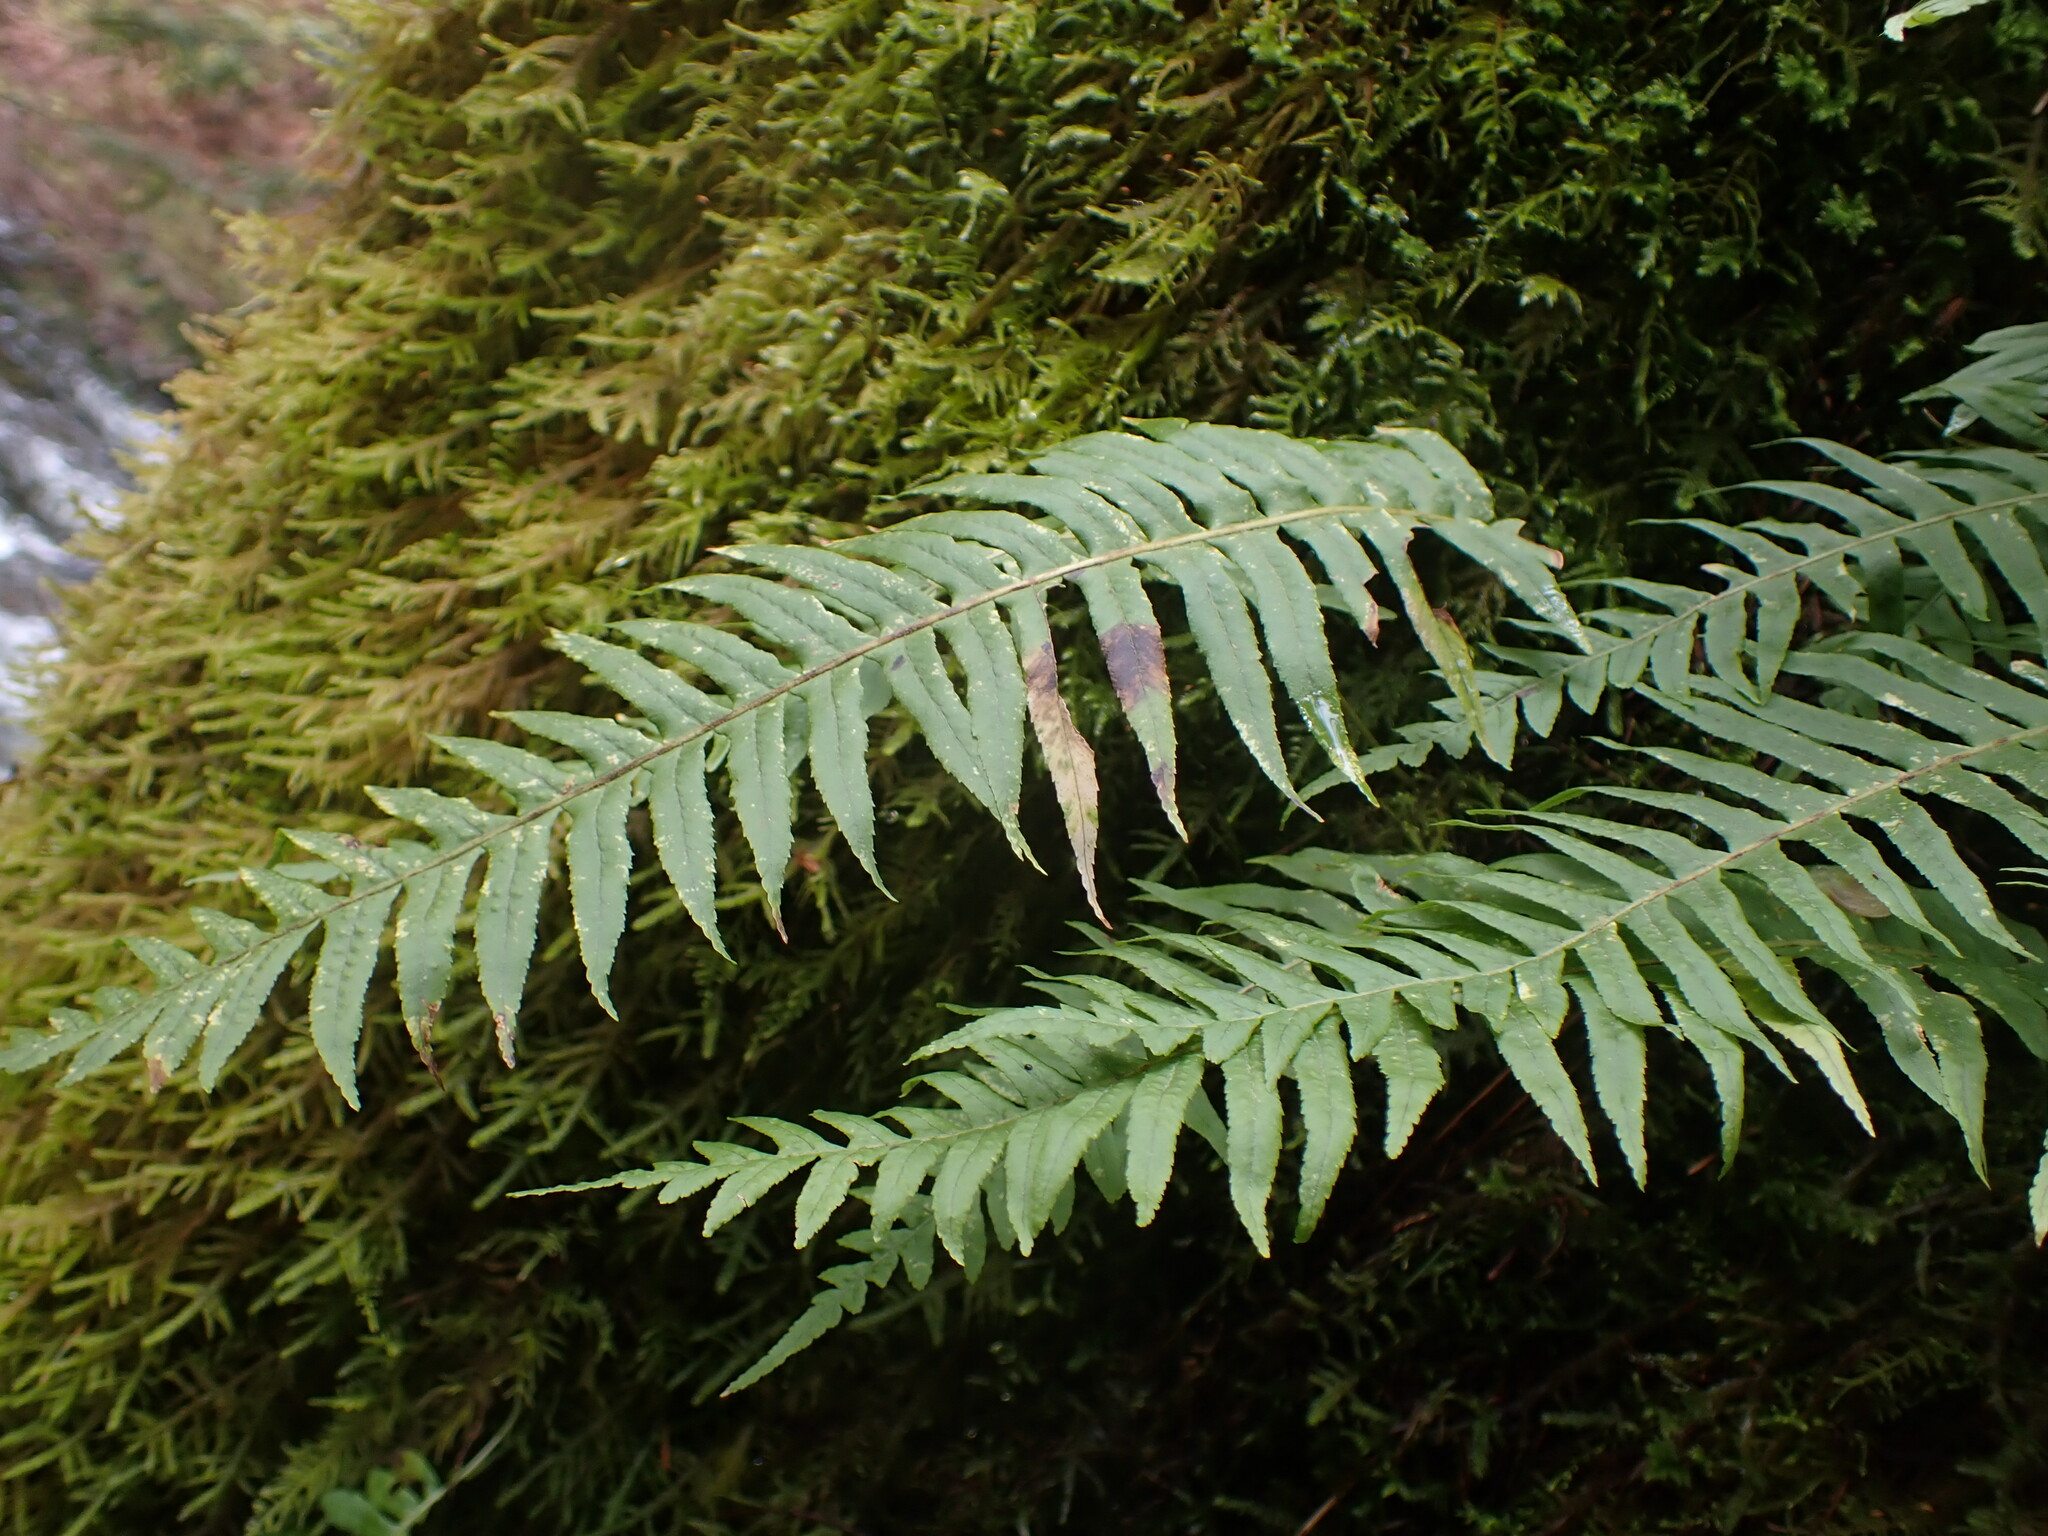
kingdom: Plantae
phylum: Tracheophyta
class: Polypodiopsida
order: Polypodiales
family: Polypodiaceae
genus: Polypodium
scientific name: Polypodium glycyrrhiza
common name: Licorice fern
